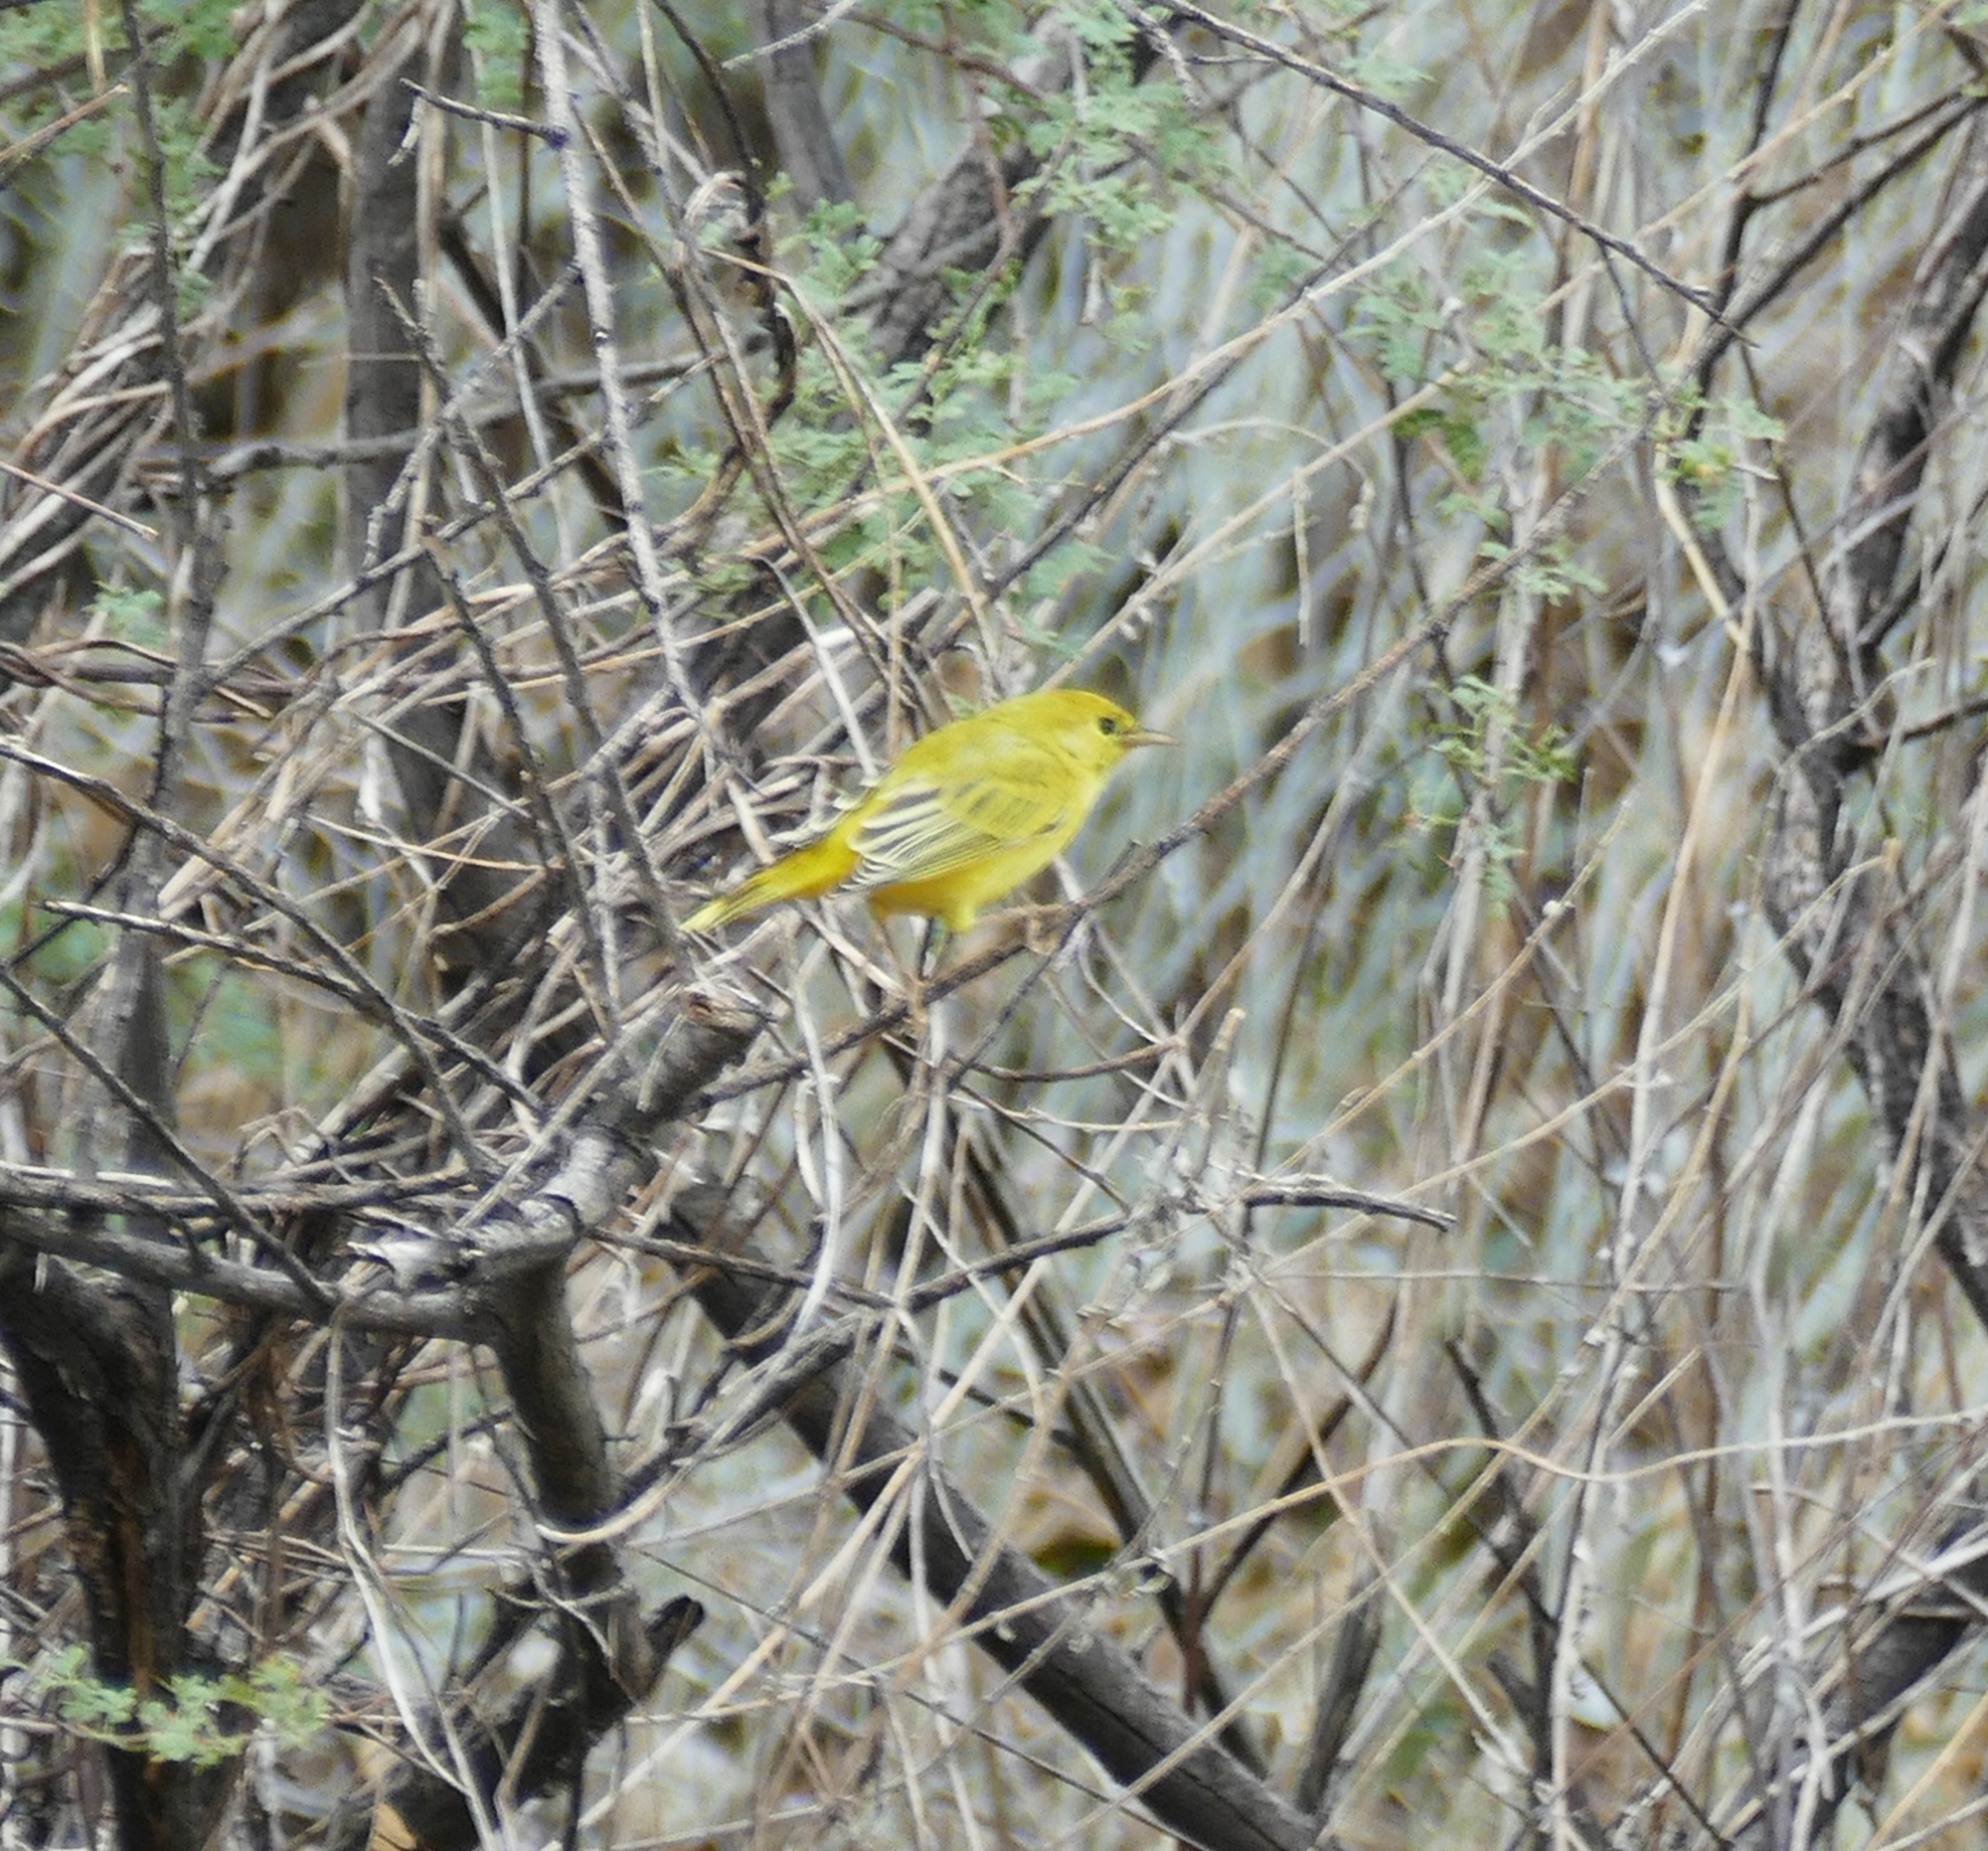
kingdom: Animalia
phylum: Chordata
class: Aves
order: Passeriformes
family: Parulidae
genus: Setophaga
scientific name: Setophaga petechia
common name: Yellow warbler
